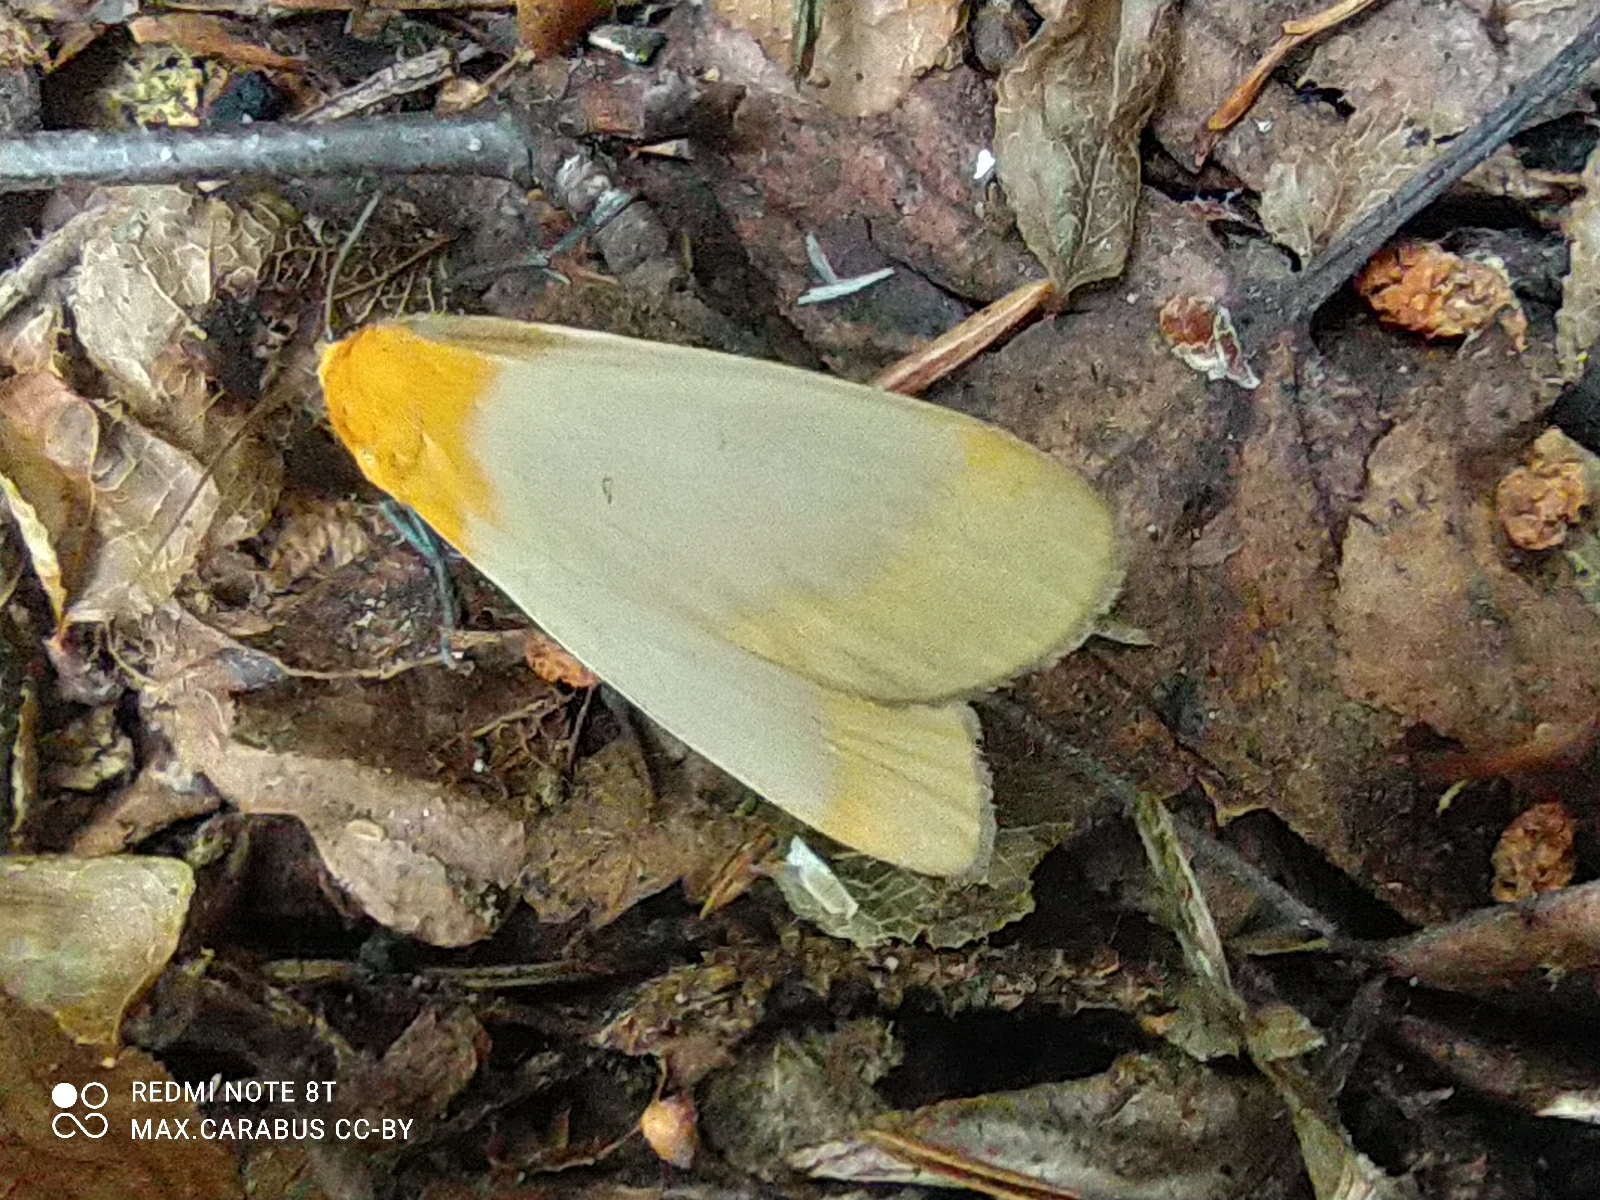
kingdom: Animalia
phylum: Arthropoda
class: Insecta
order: Lepidoptera
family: Erebidae
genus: Lithosia
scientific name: Lithosia quadra
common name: Four-spotted footman
